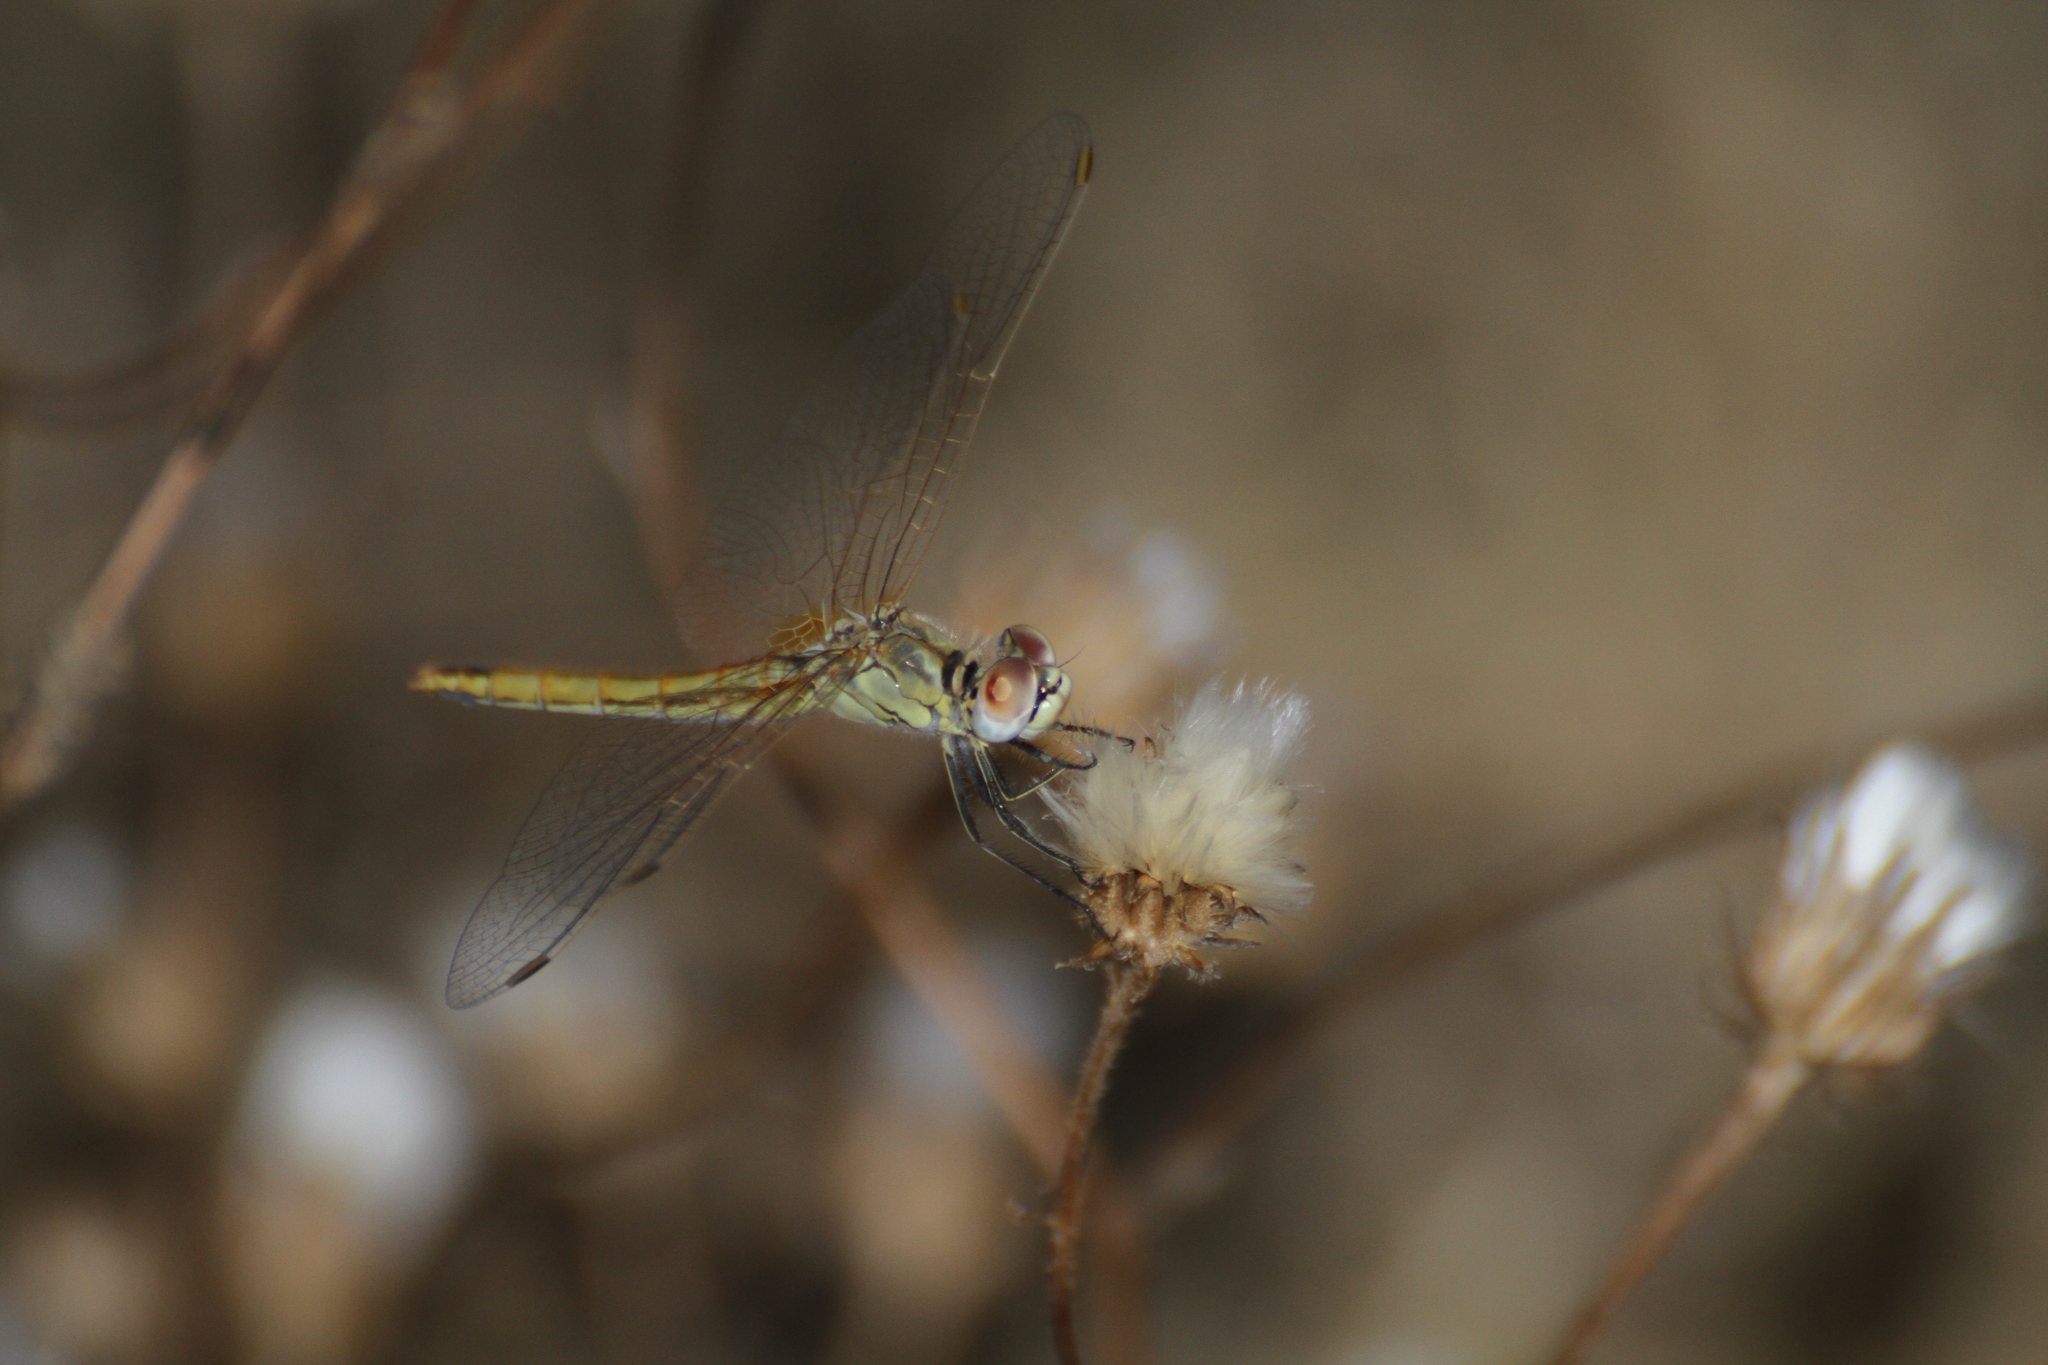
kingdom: Animalia
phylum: Arthropoda
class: Insecta
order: Odonata
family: Libellulidae
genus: Sympetrum
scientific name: Sympetrum fonscolombii
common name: Red-veined darter
